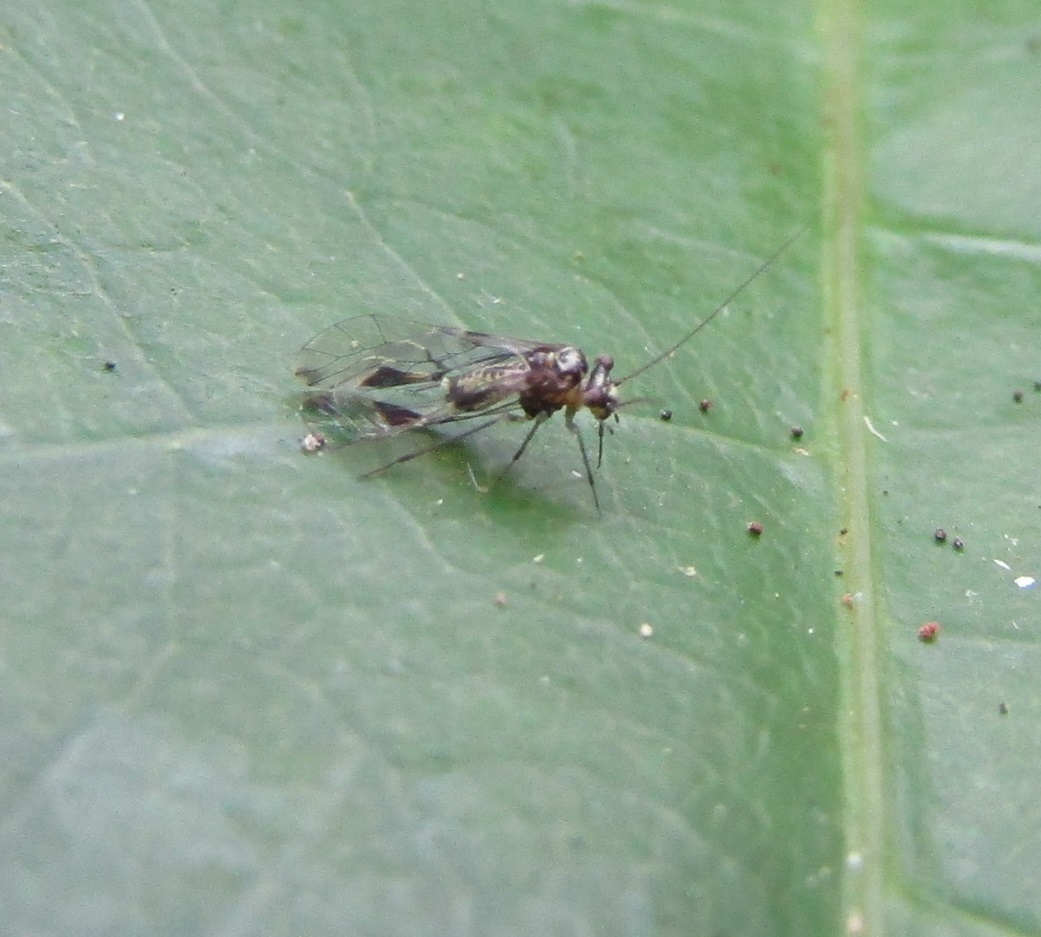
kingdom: Animalia
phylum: Arthropoda
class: Insecta
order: Psocodea
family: Psocidae
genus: Blaste
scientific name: Blaste tillyardi
